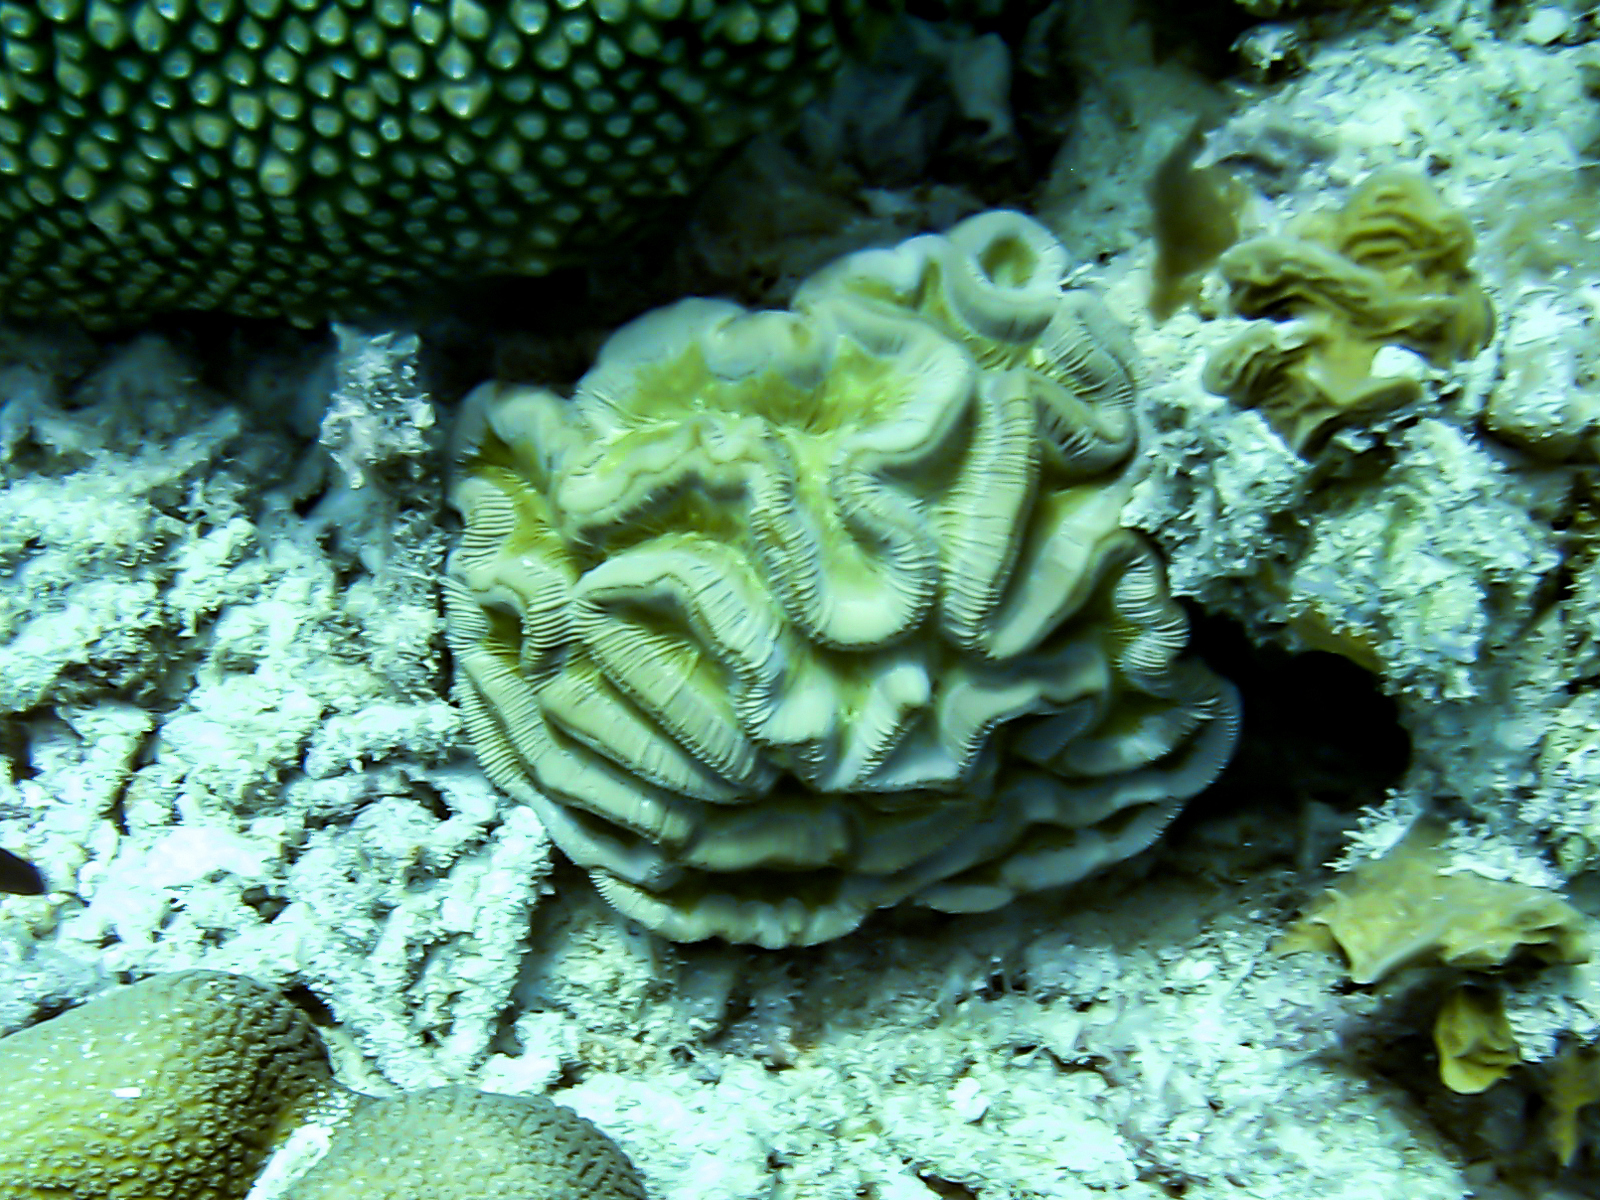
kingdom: Animalia
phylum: Cnidaria
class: Anthozoa
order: Scleractinia
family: Faviidae
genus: Colpophyllia
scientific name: Colpophyllia natans
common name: Boulder brain coral
